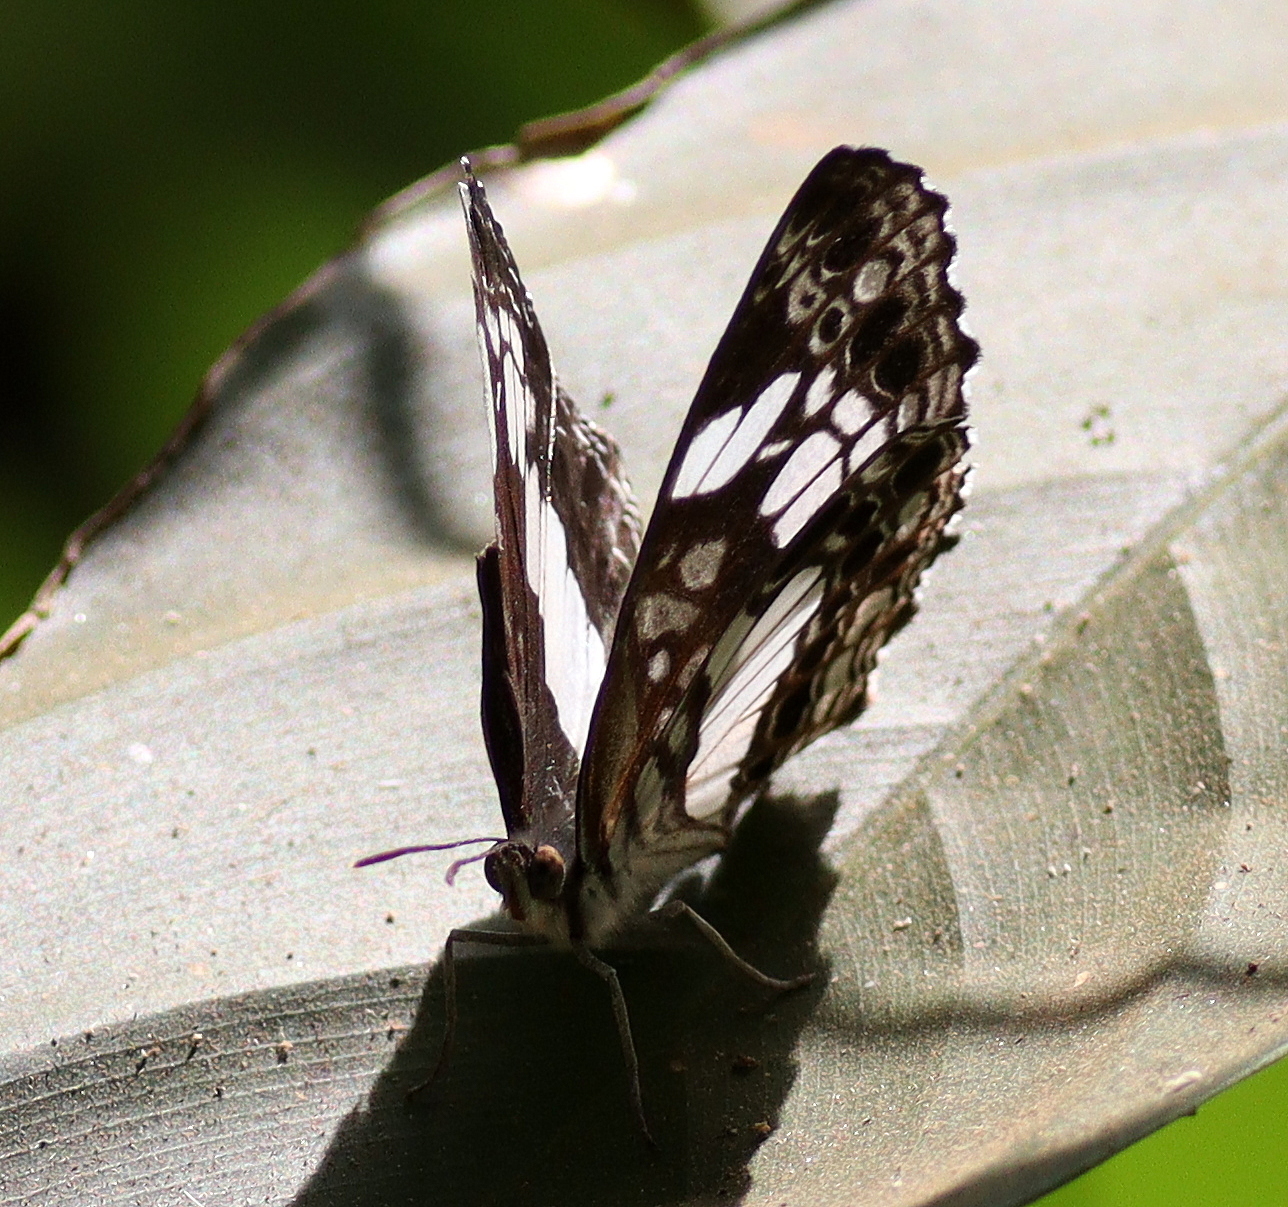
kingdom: Animalia
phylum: Arthropoda
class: Insecta
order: Lepidoptera
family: Nymphalidae
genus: Neptidopsis
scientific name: Neptidopsis ophione
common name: Scalloped false sailor
